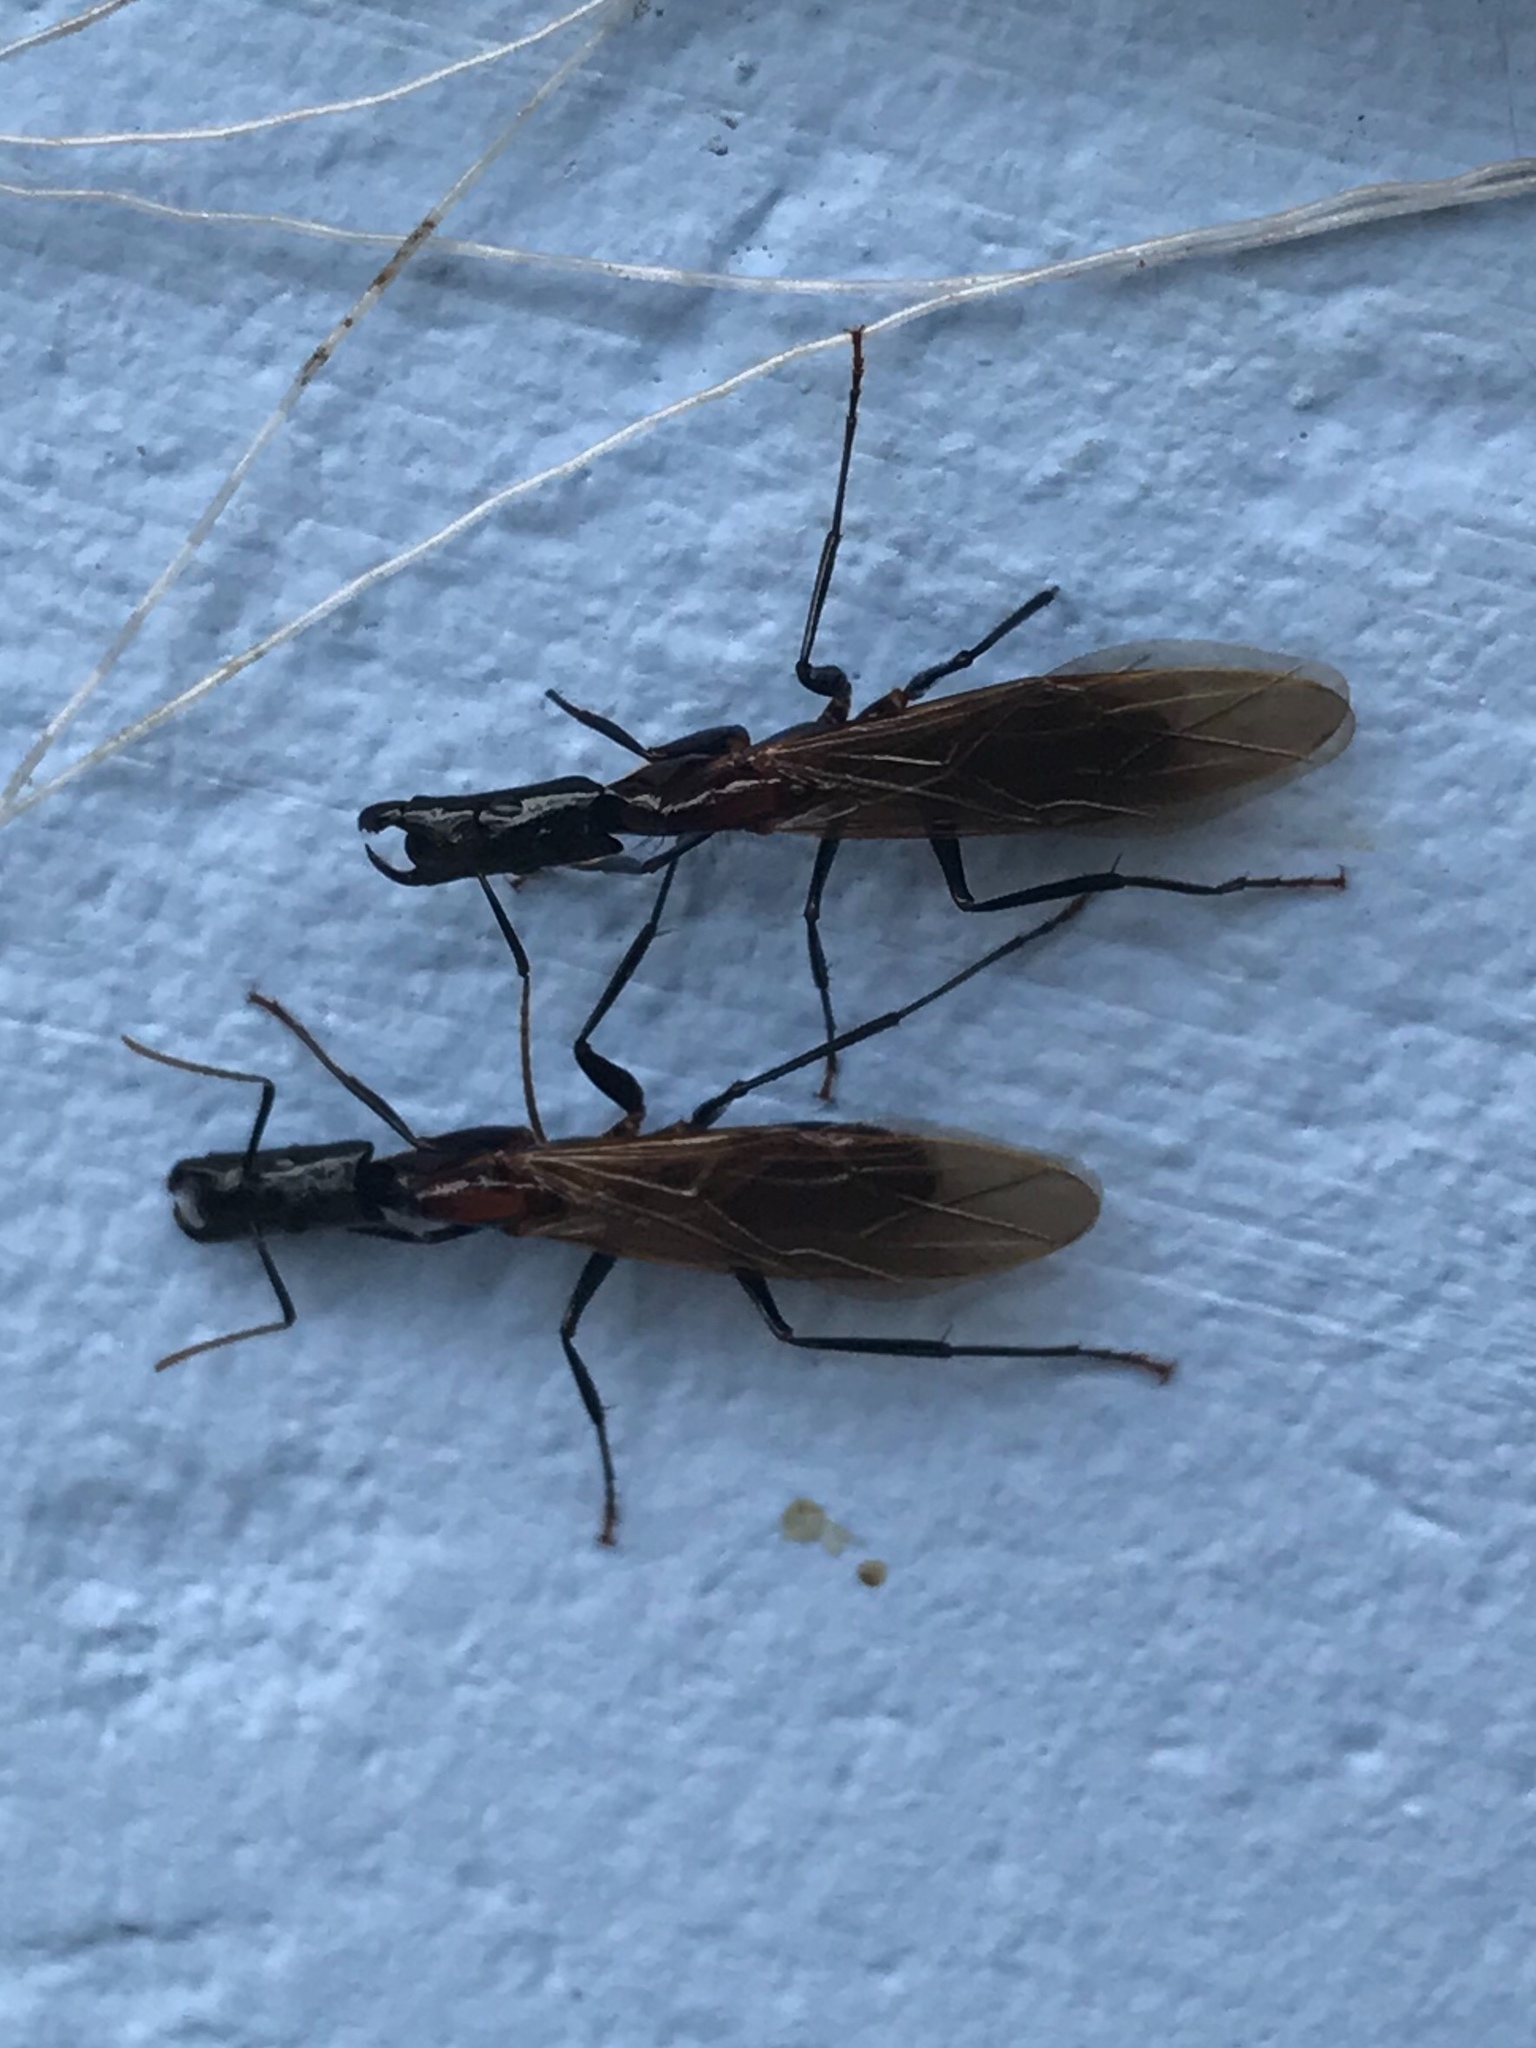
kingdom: Animalia
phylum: Arthropoda
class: Insecta
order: Hymenoptera
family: Formicidae
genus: Camponotus
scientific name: Camponotus mirabilis
